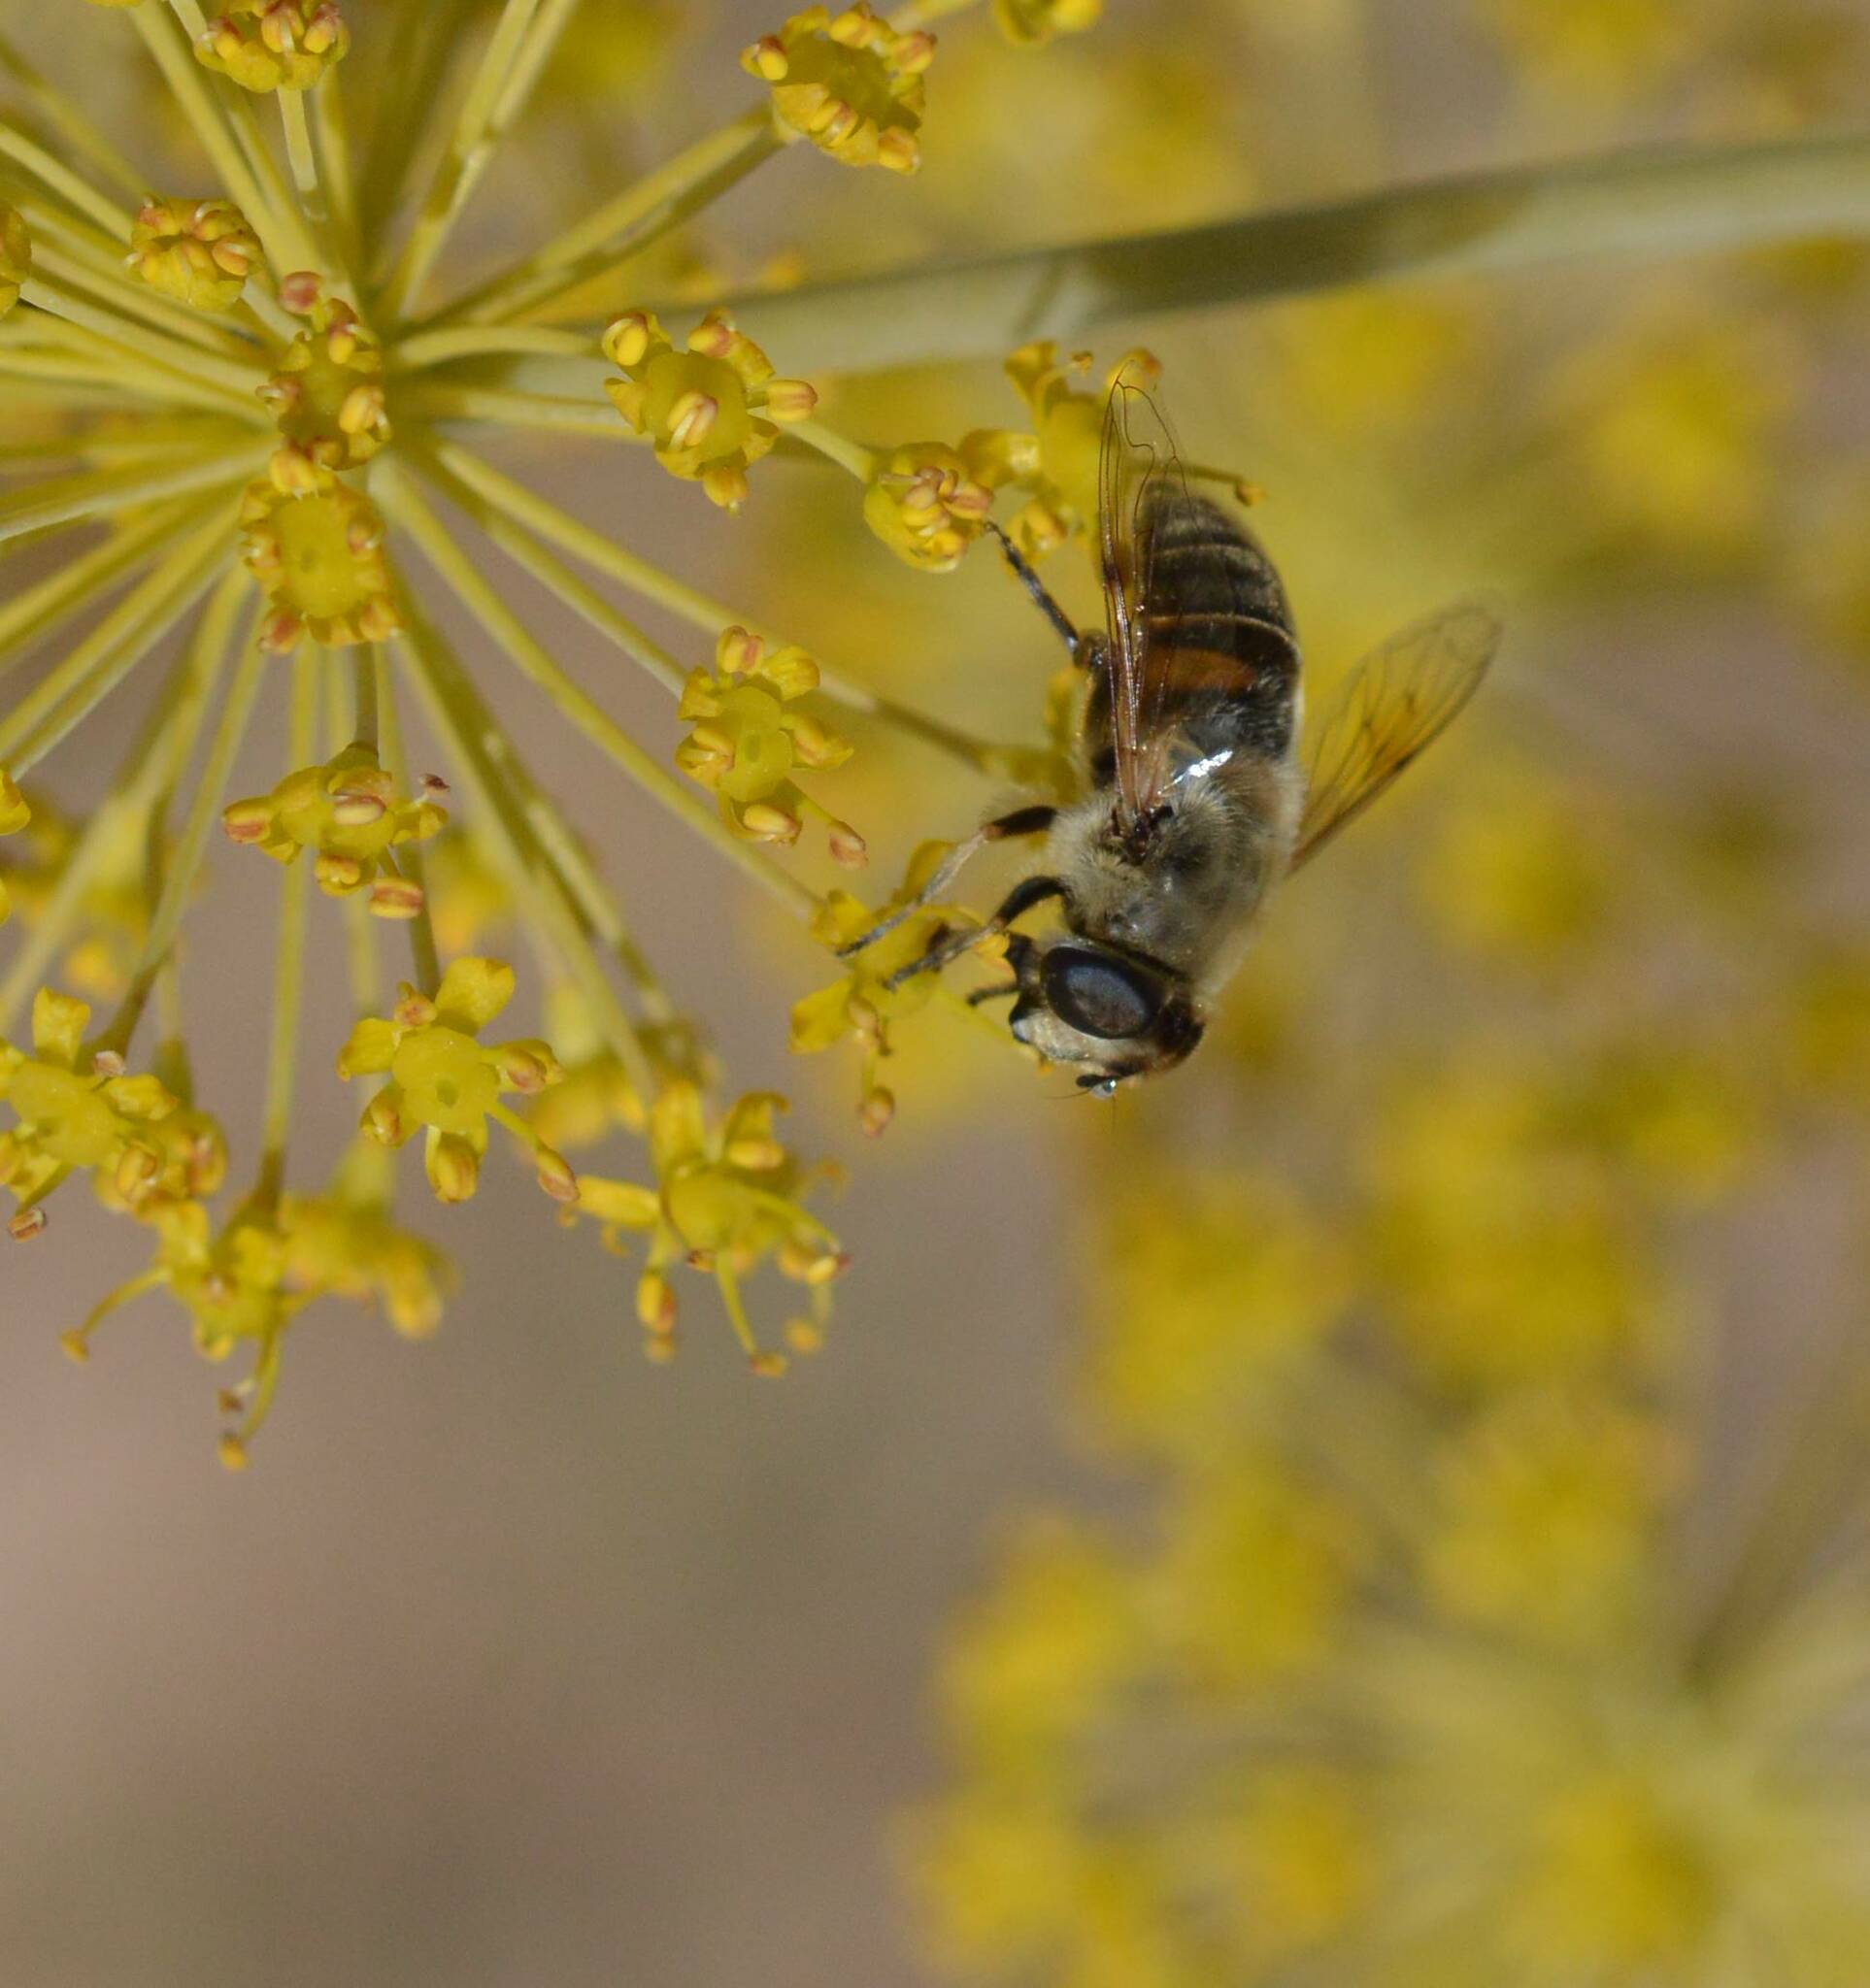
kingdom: Animalia
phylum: Arthropoda
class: Insecta
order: Diptera
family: Syrphidae
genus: Eristalis
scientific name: Eristalis tenax
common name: Drone fly
